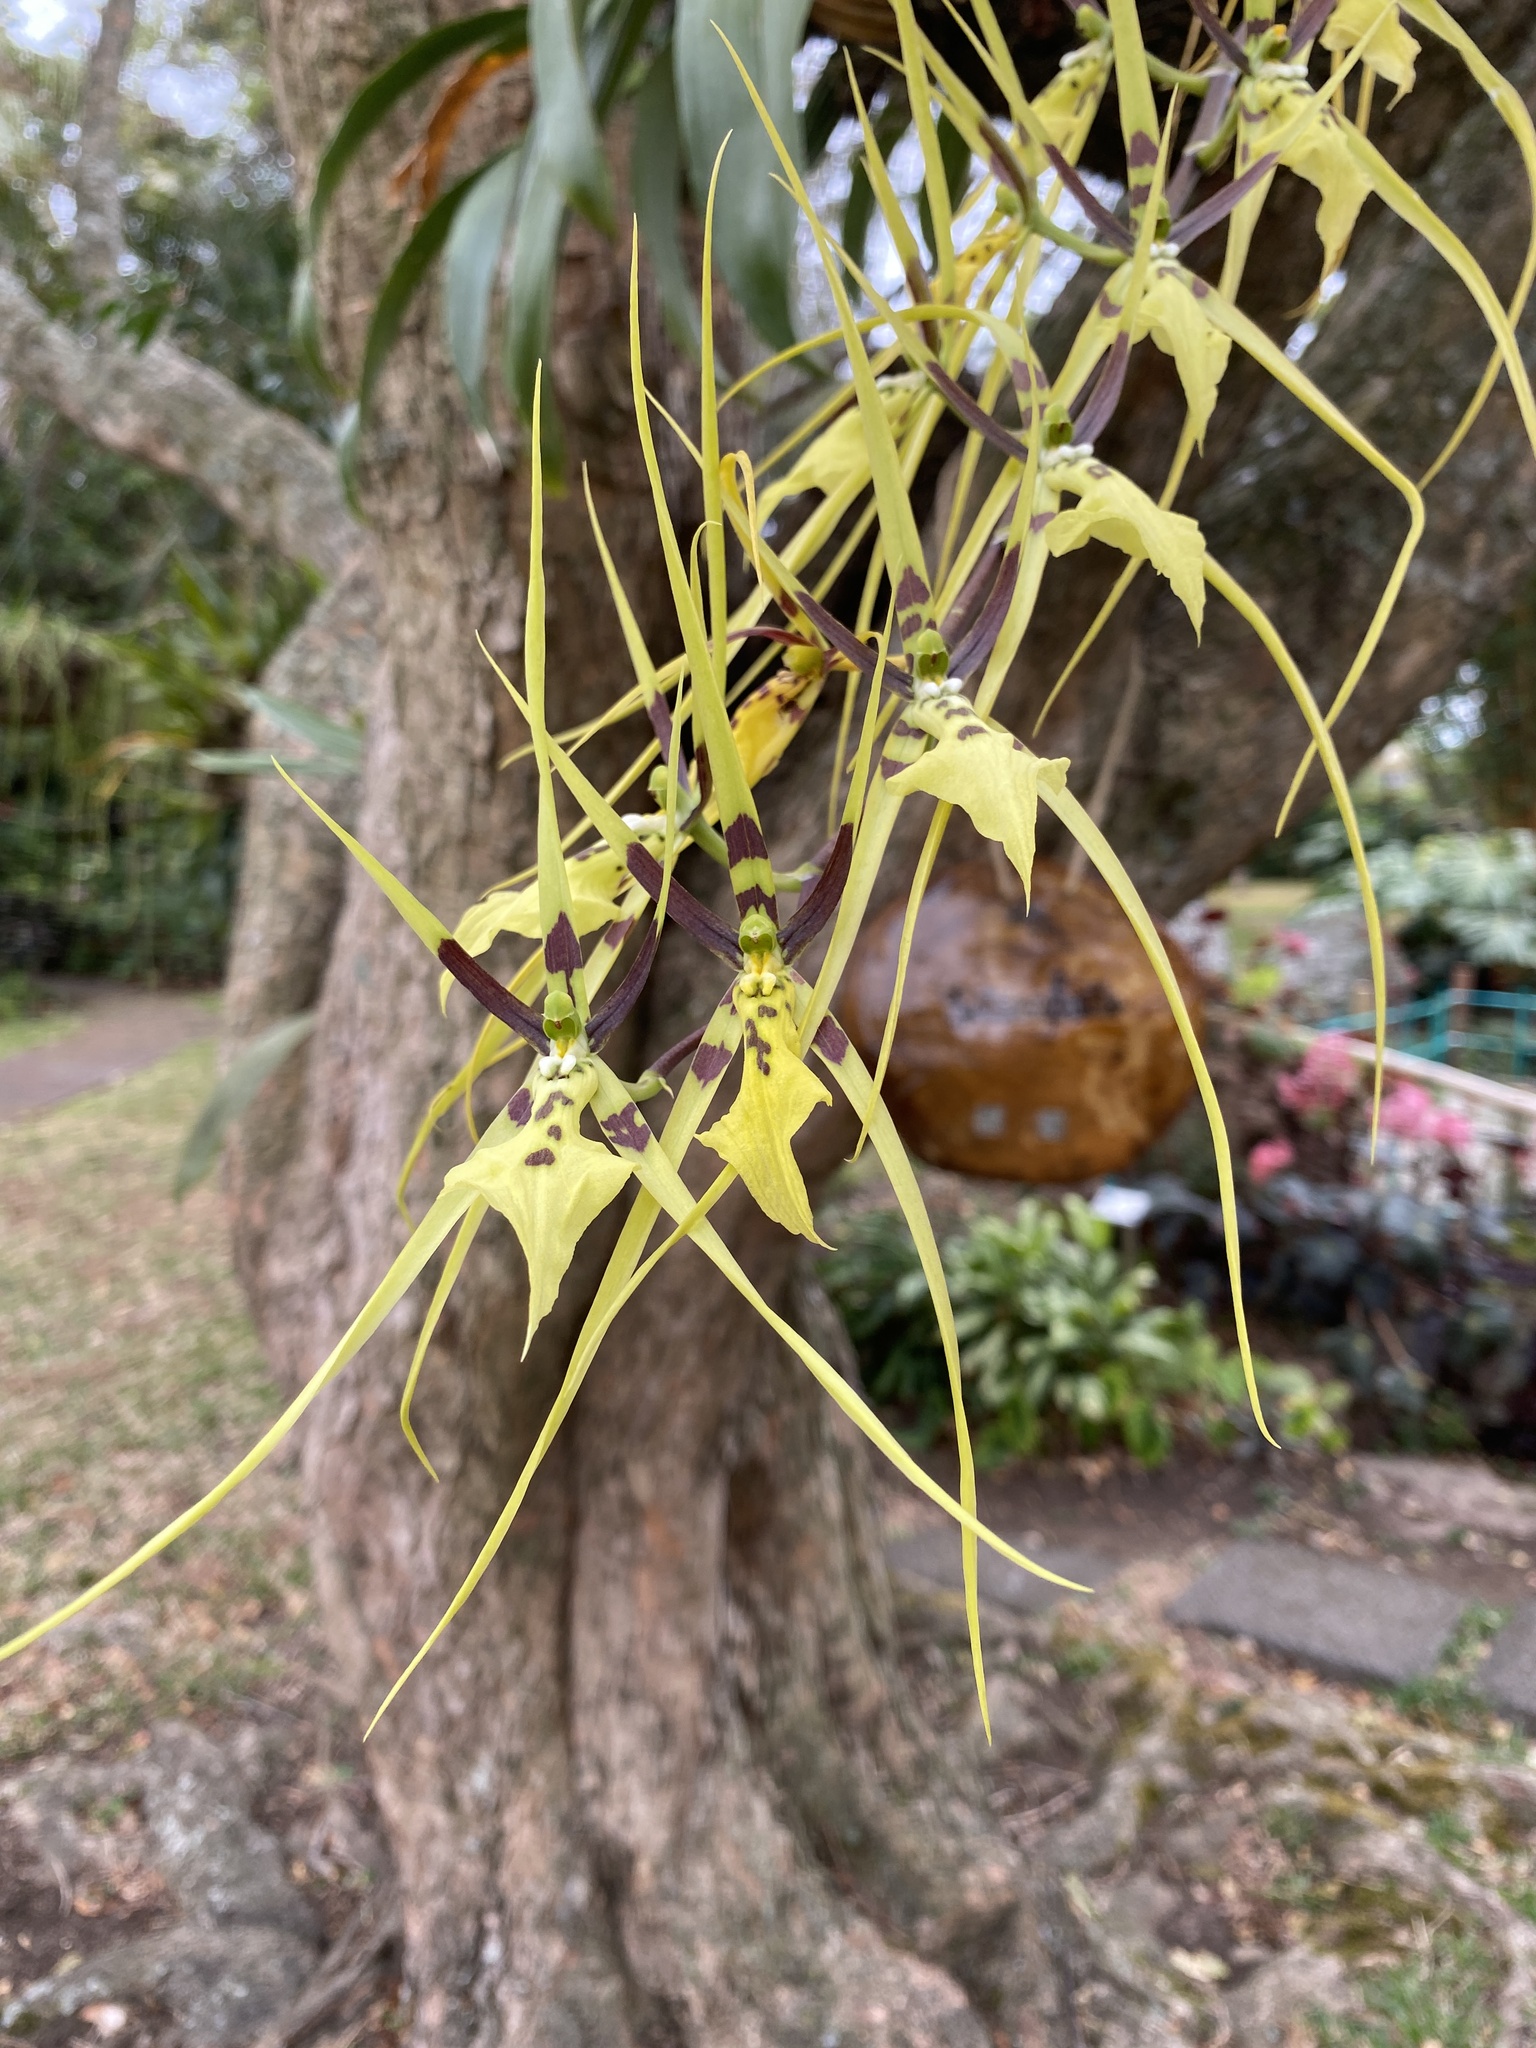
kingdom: Plantae
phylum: Tracheophyta
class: Liliopsida
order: Asparagales
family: Orchidaceae
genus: Brassia
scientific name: Brassia gireoudiana
